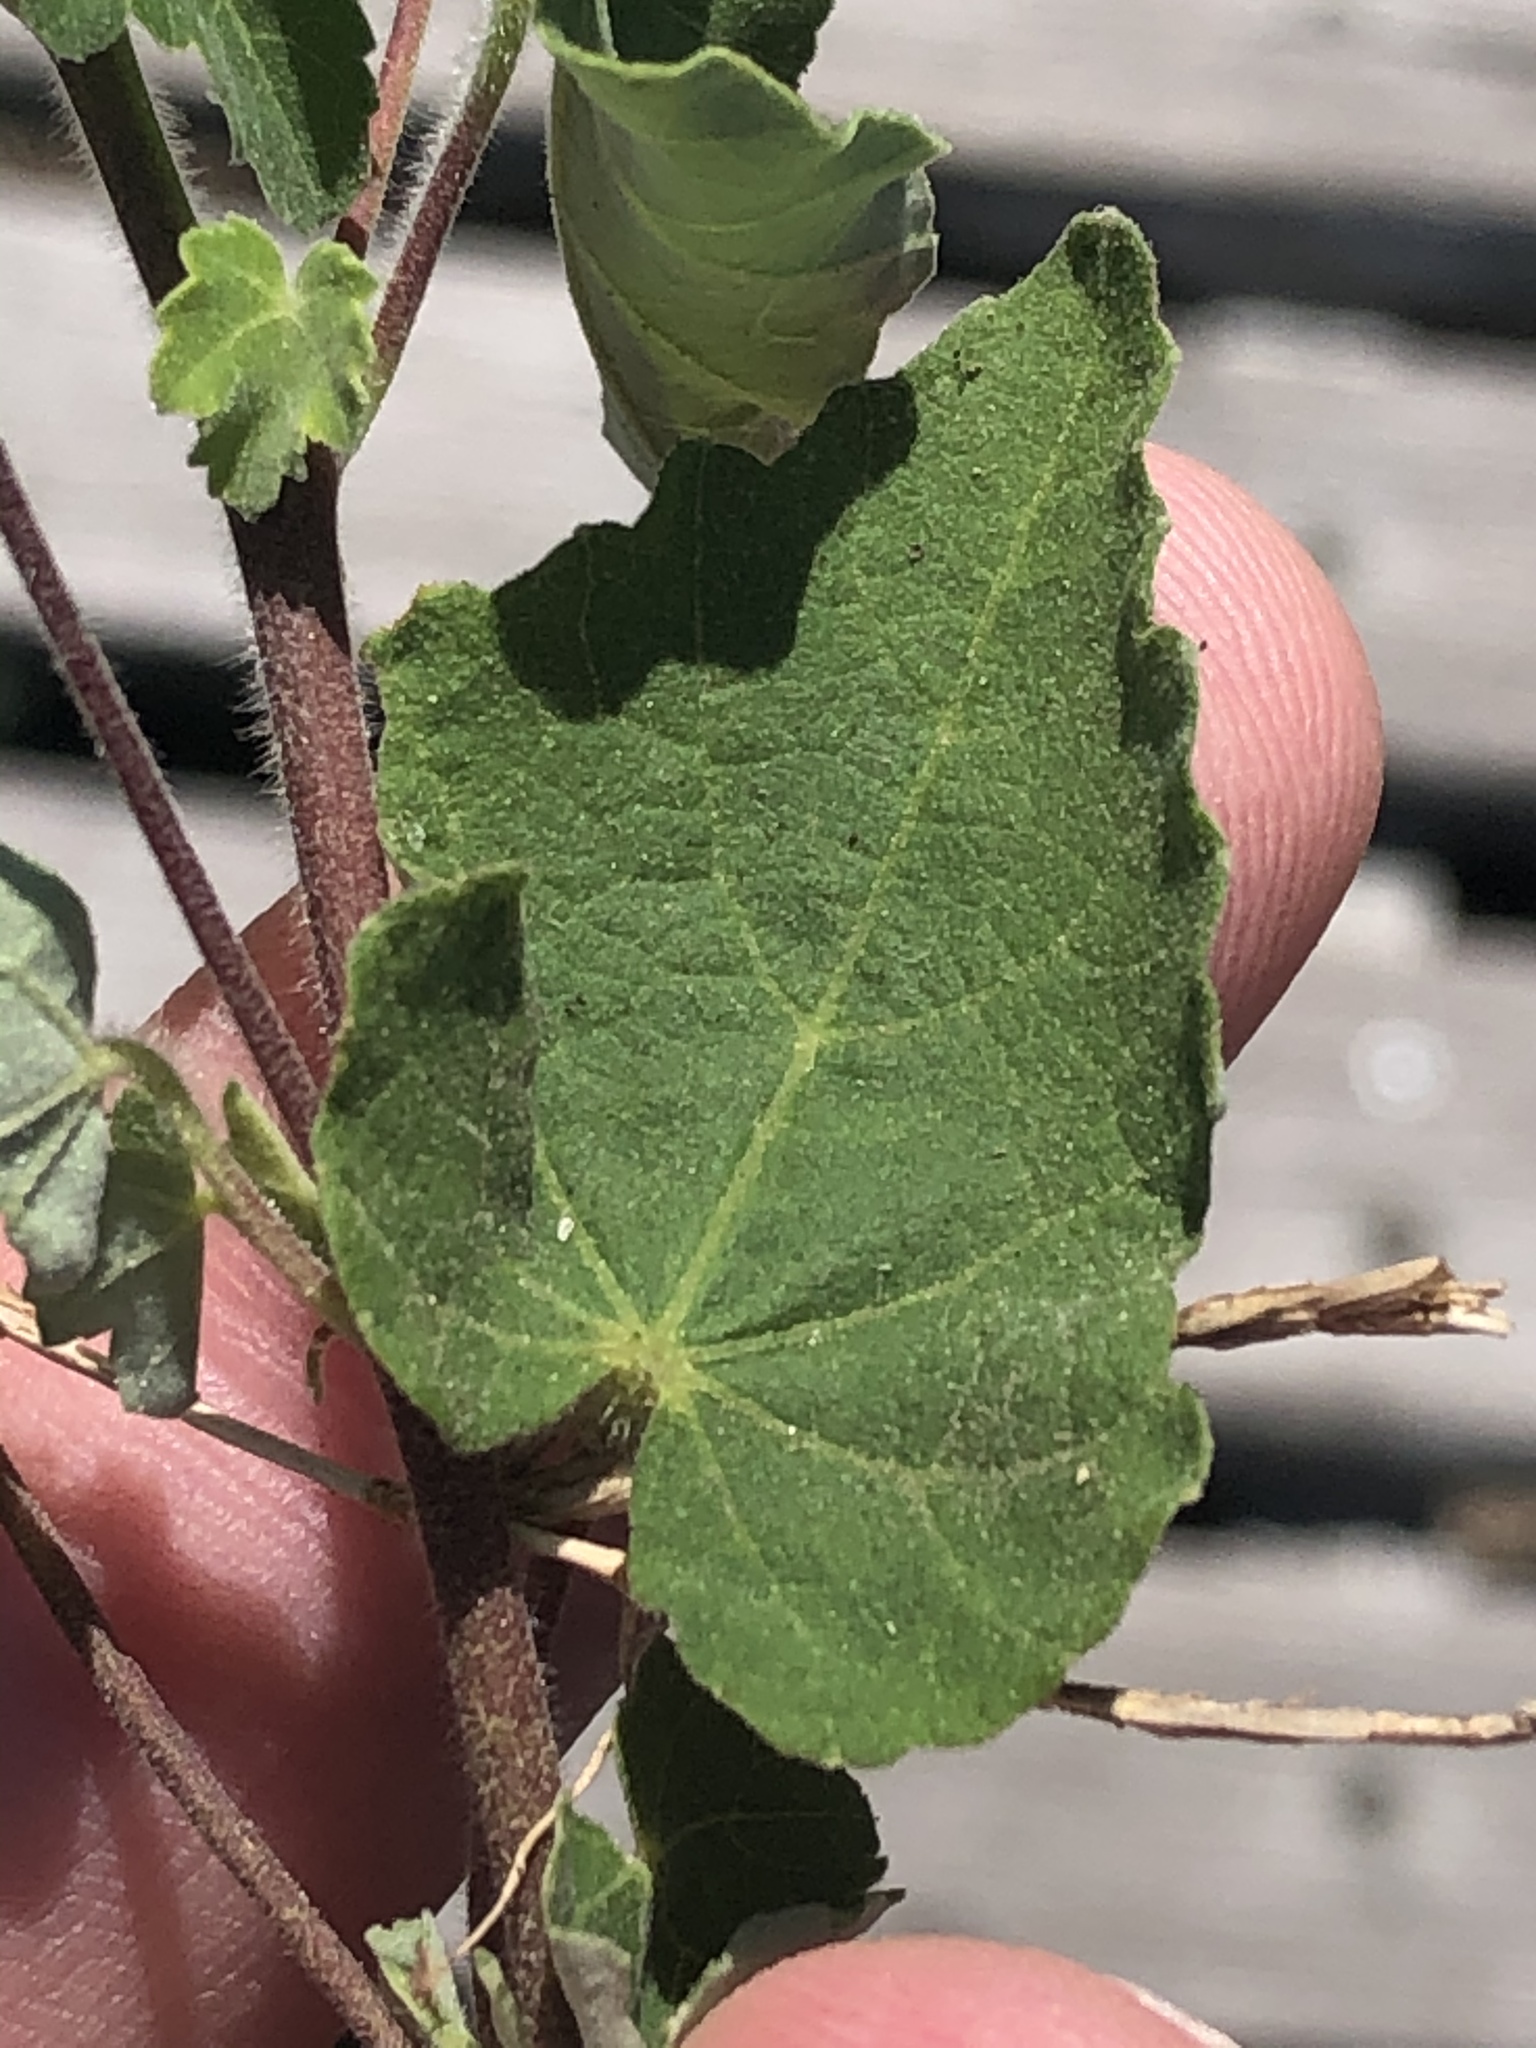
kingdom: Plantae
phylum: Tracheophyta
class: Magnoliopsida
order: Malvales
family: Malvaceae
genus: Abutilon
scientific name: Abutilon sonneratianum
